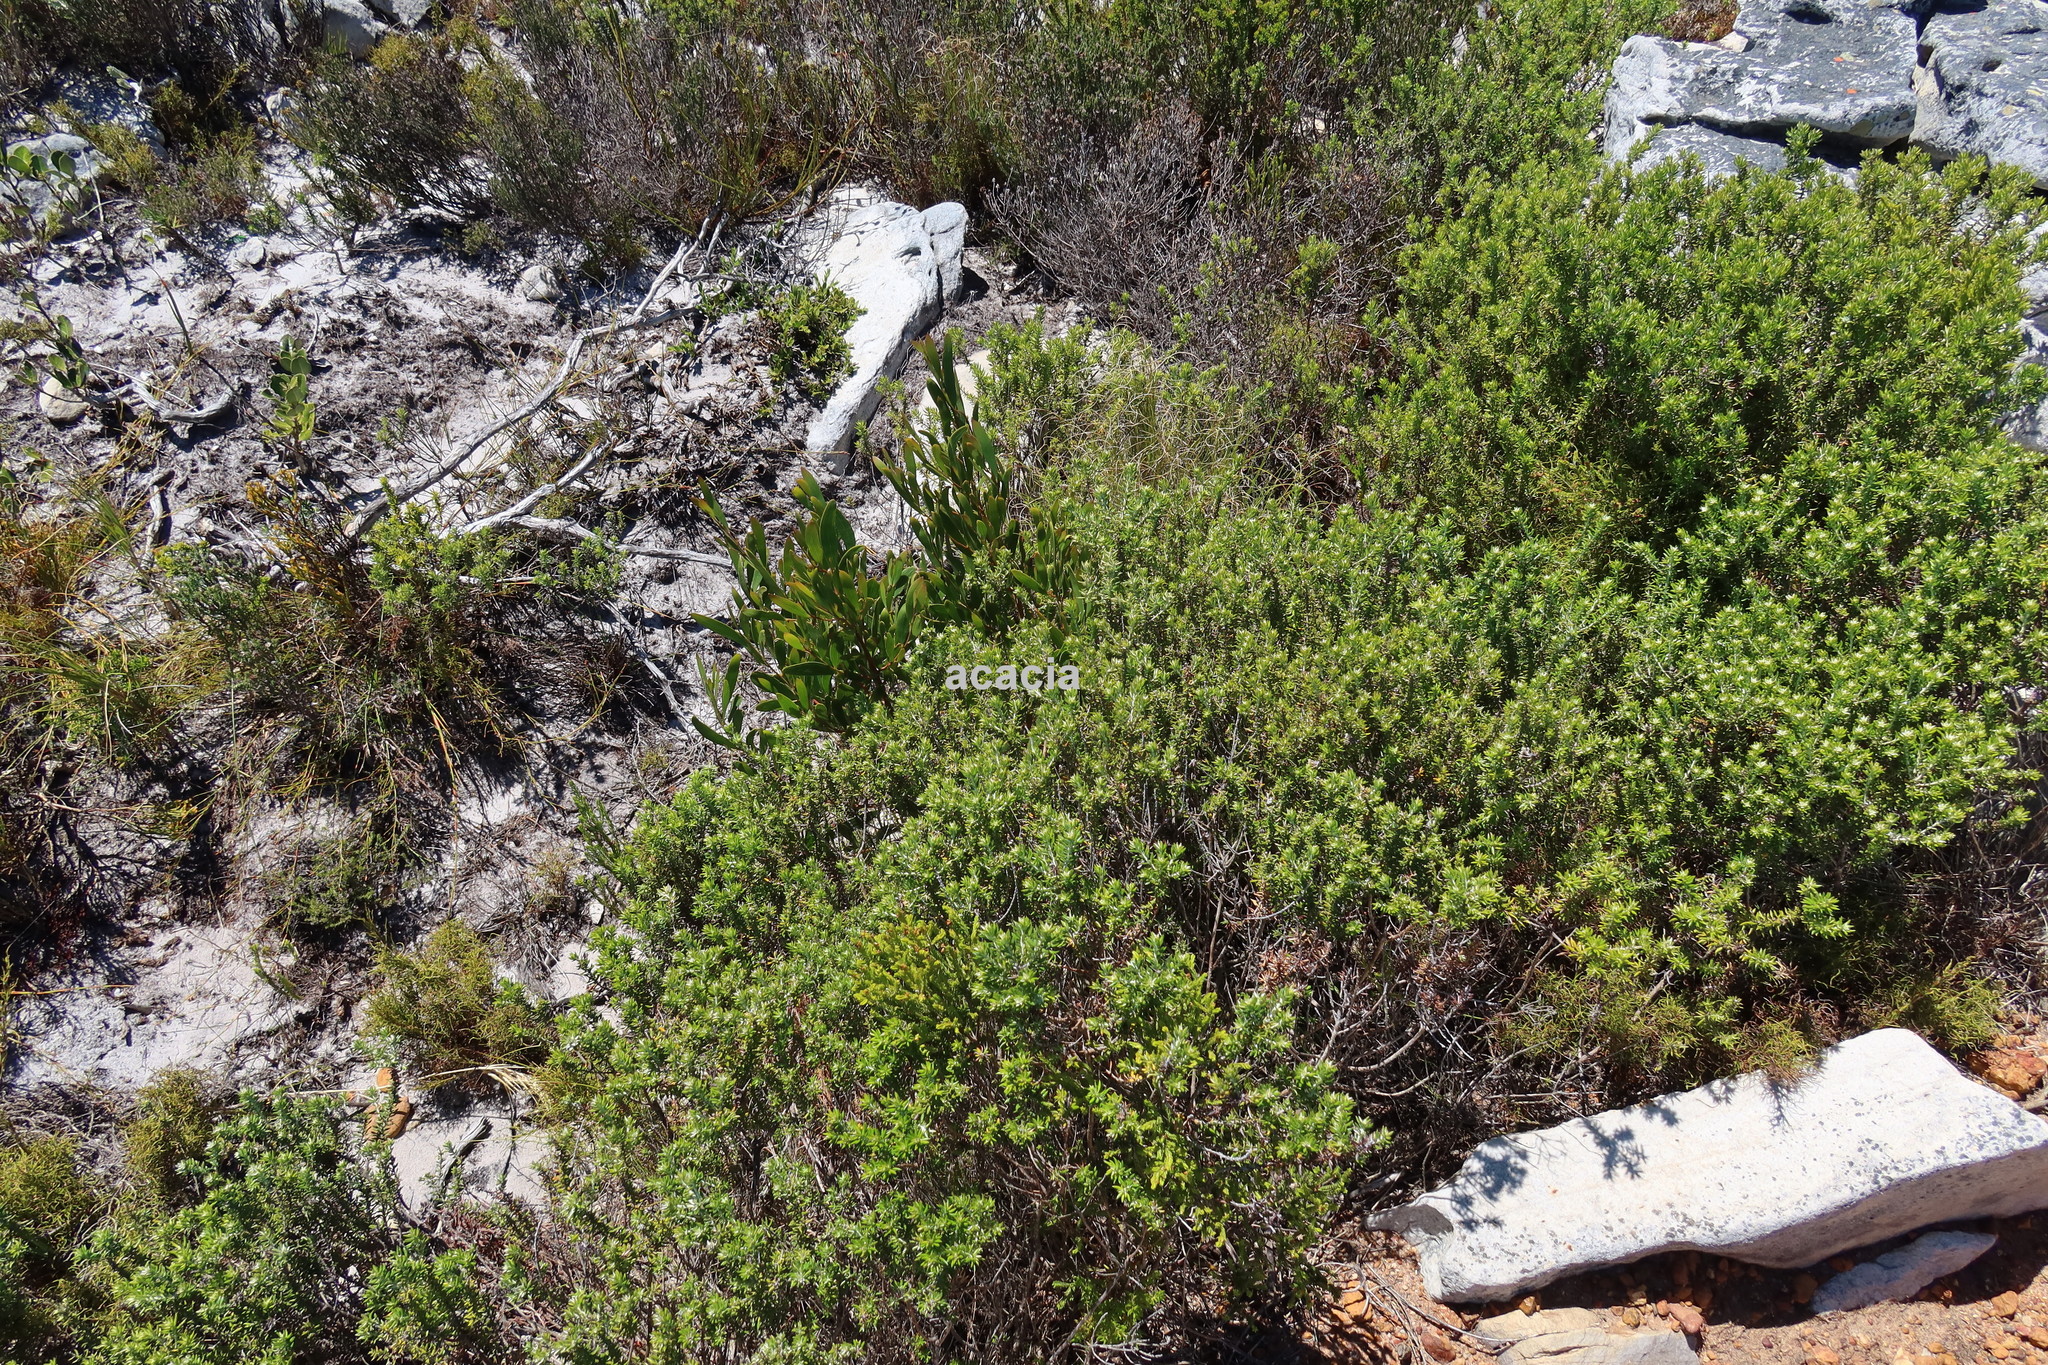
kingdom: Plantae
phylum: Tracheophyta
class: Magnoliopsida
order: Fabales
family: Fabaceae
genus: Acacia
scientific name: Acacia cyclops
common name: Coastal wattle
